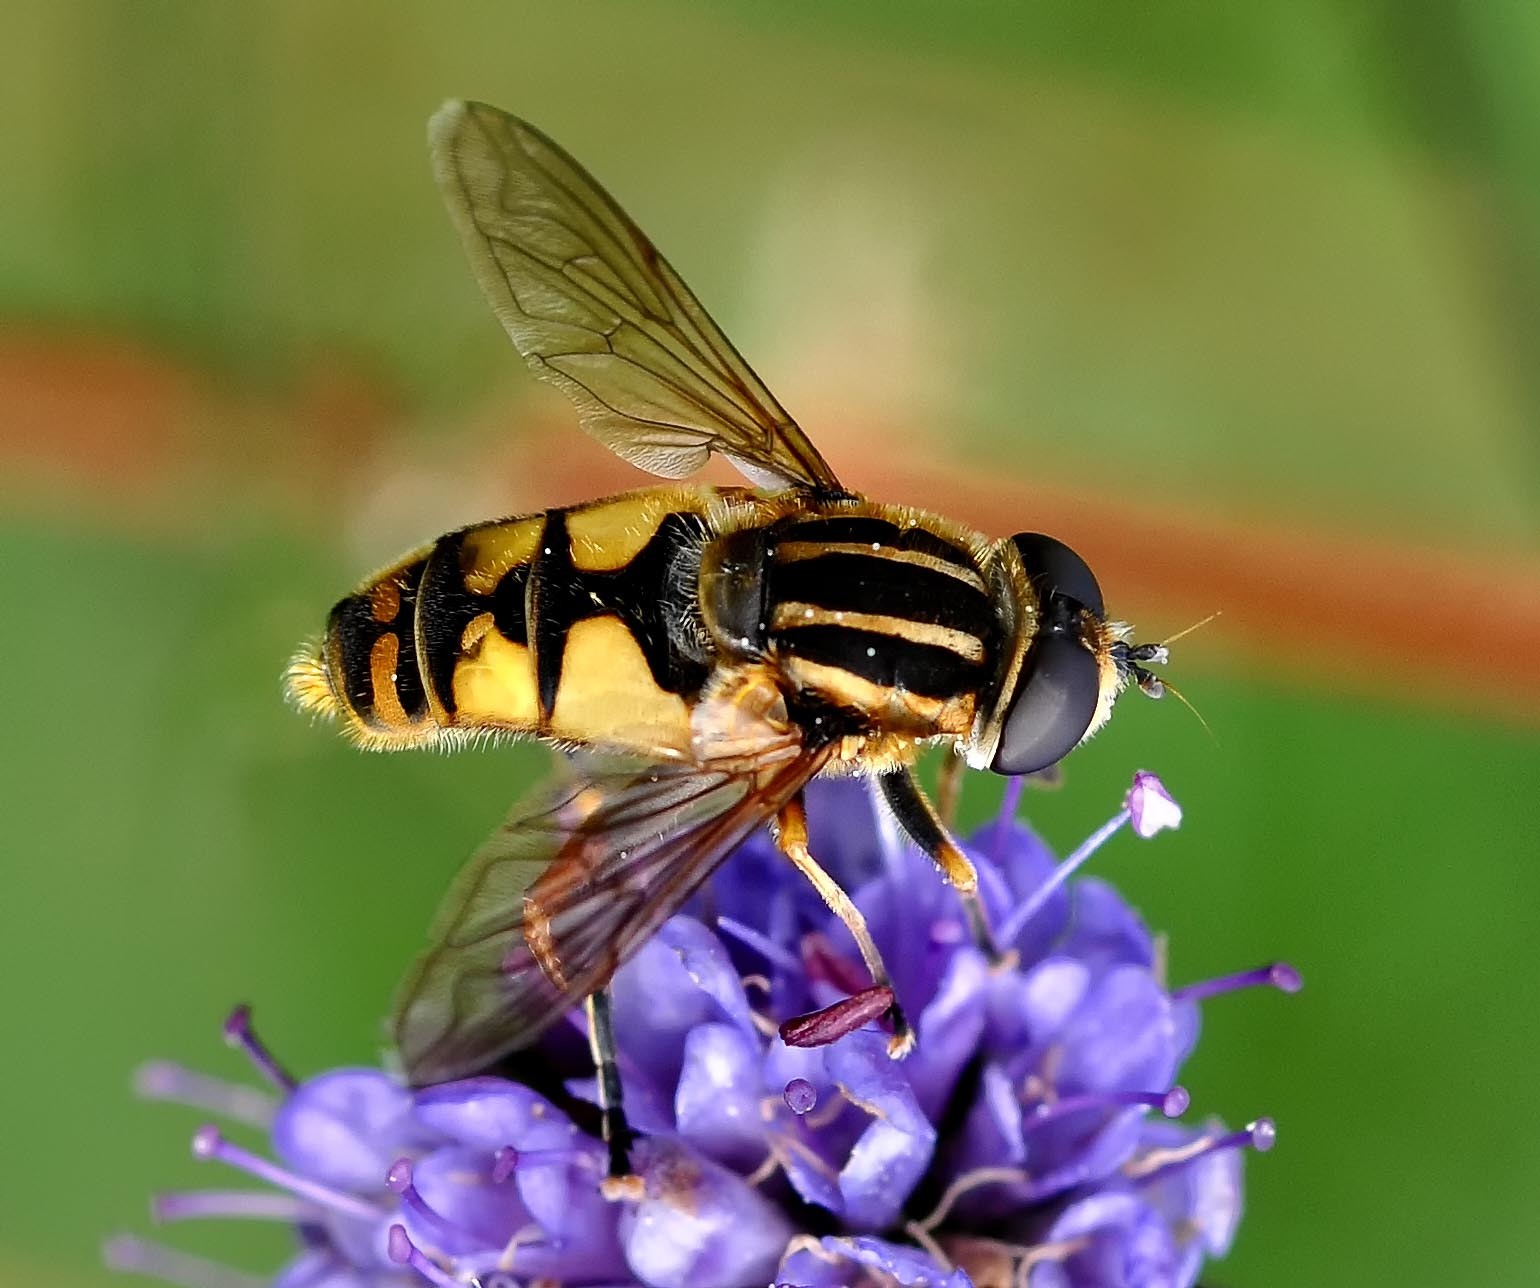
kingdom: Animalia
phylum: Arthropoda
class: Insecta
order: Diptera
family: Syrphidae
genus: Helophilus
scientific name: Helophilus pendulus
